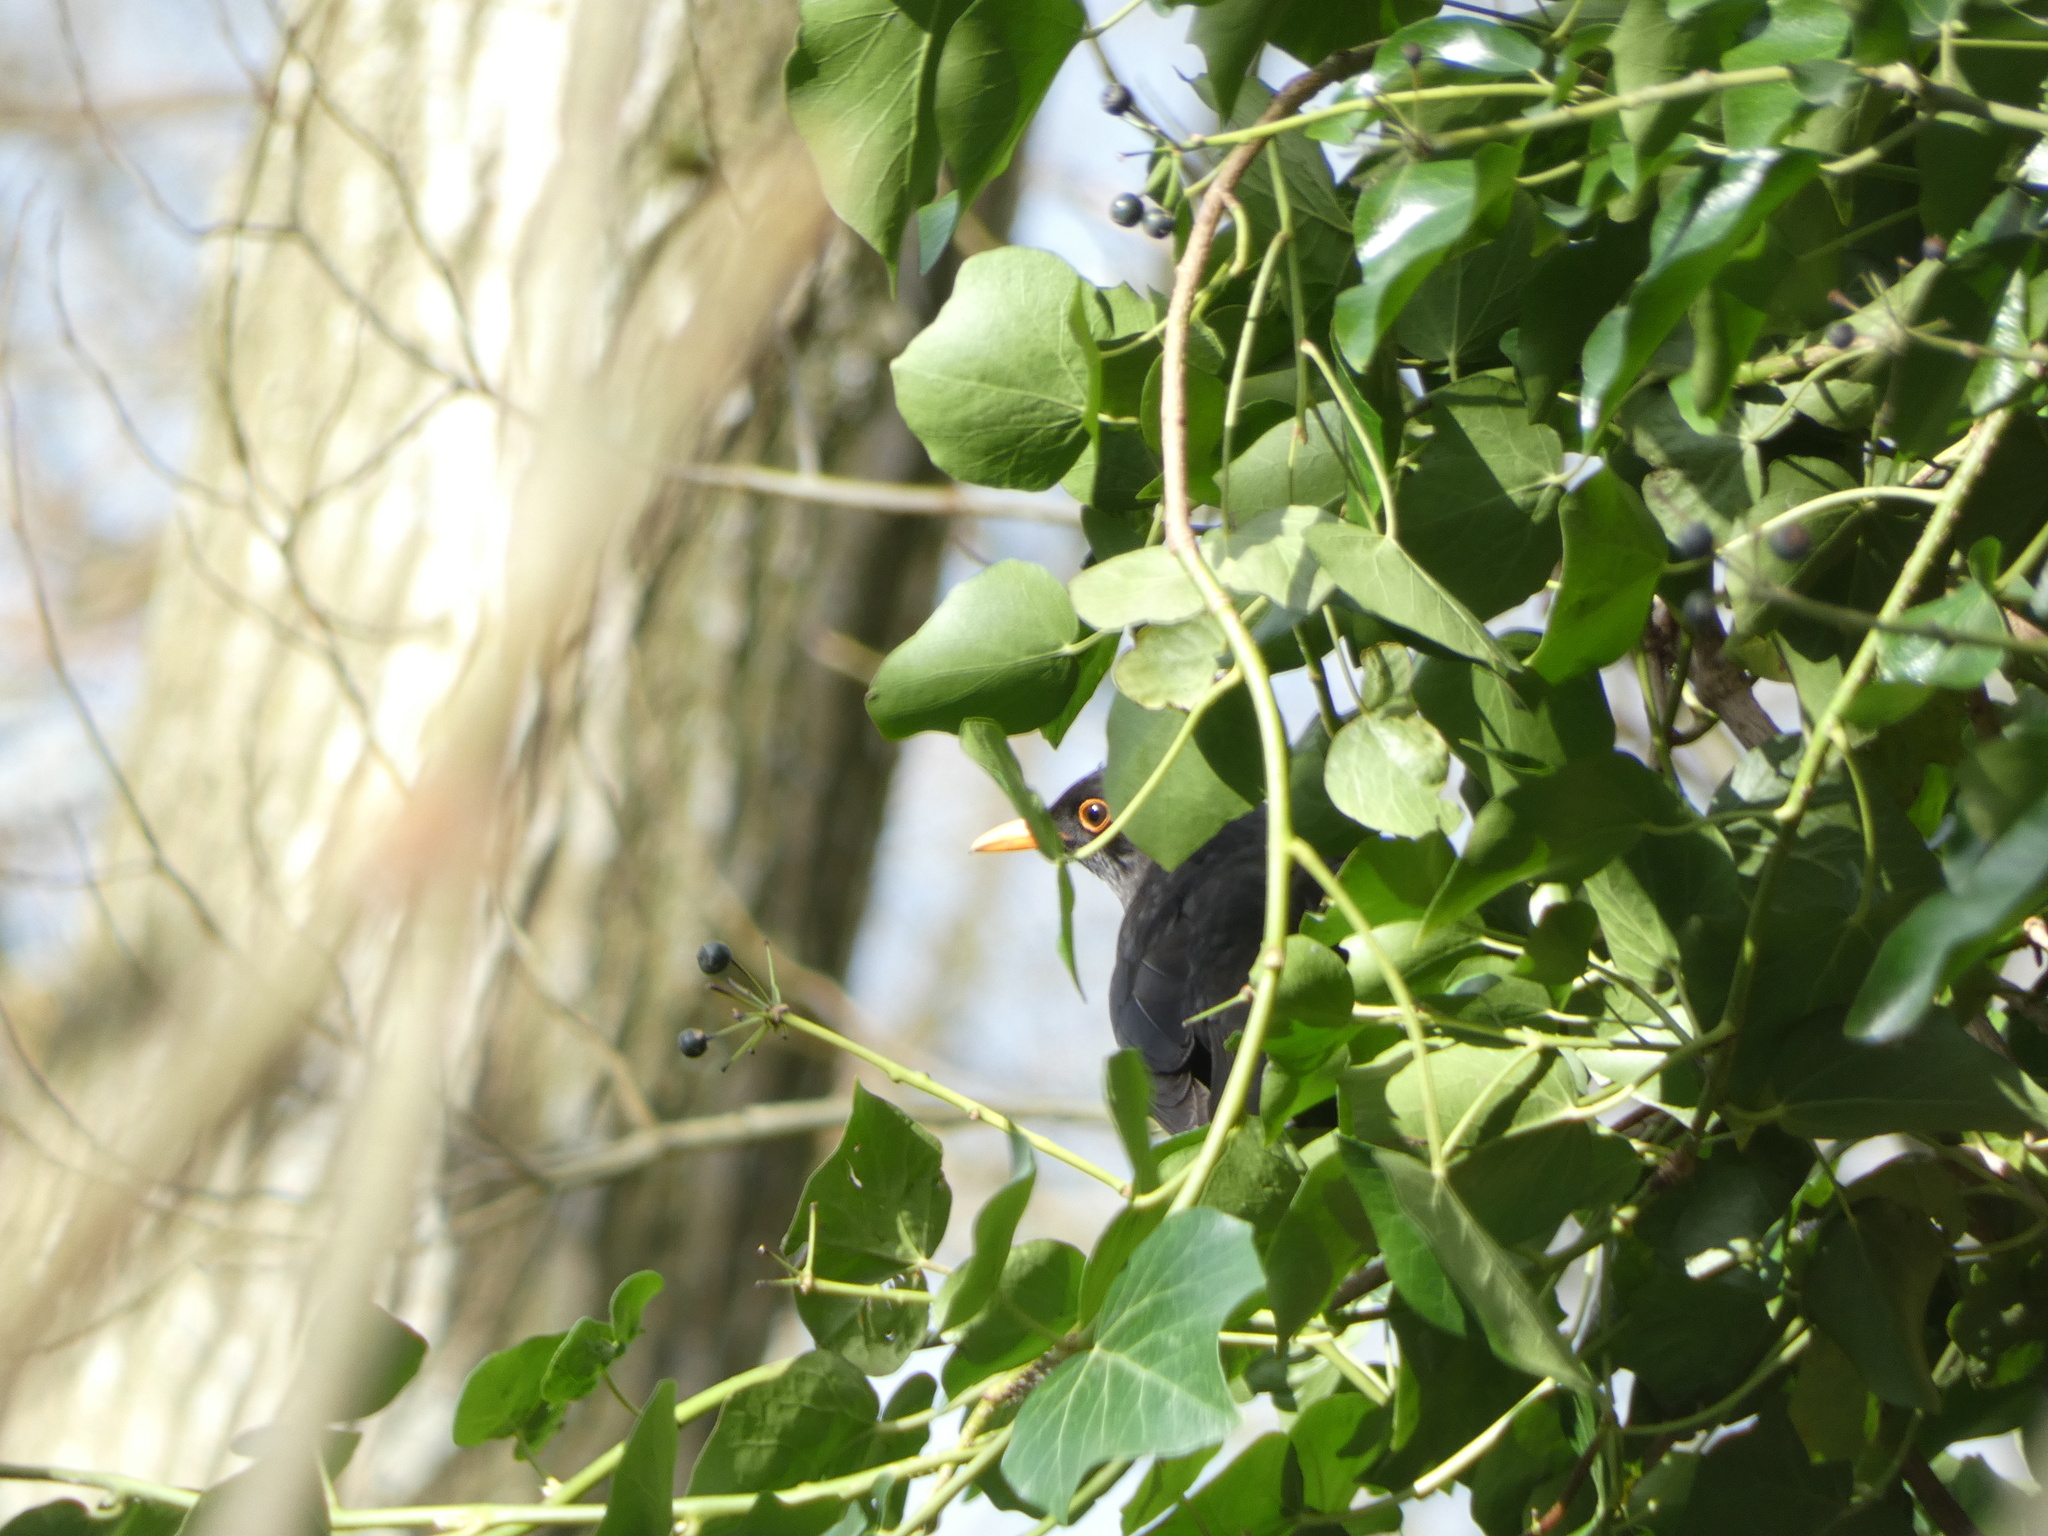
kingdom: Animalia
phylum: Chordata
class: Aves
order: Passeriformes
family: Turdidae
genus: Turdus
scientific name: Turdus merula
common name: Common blackbird
